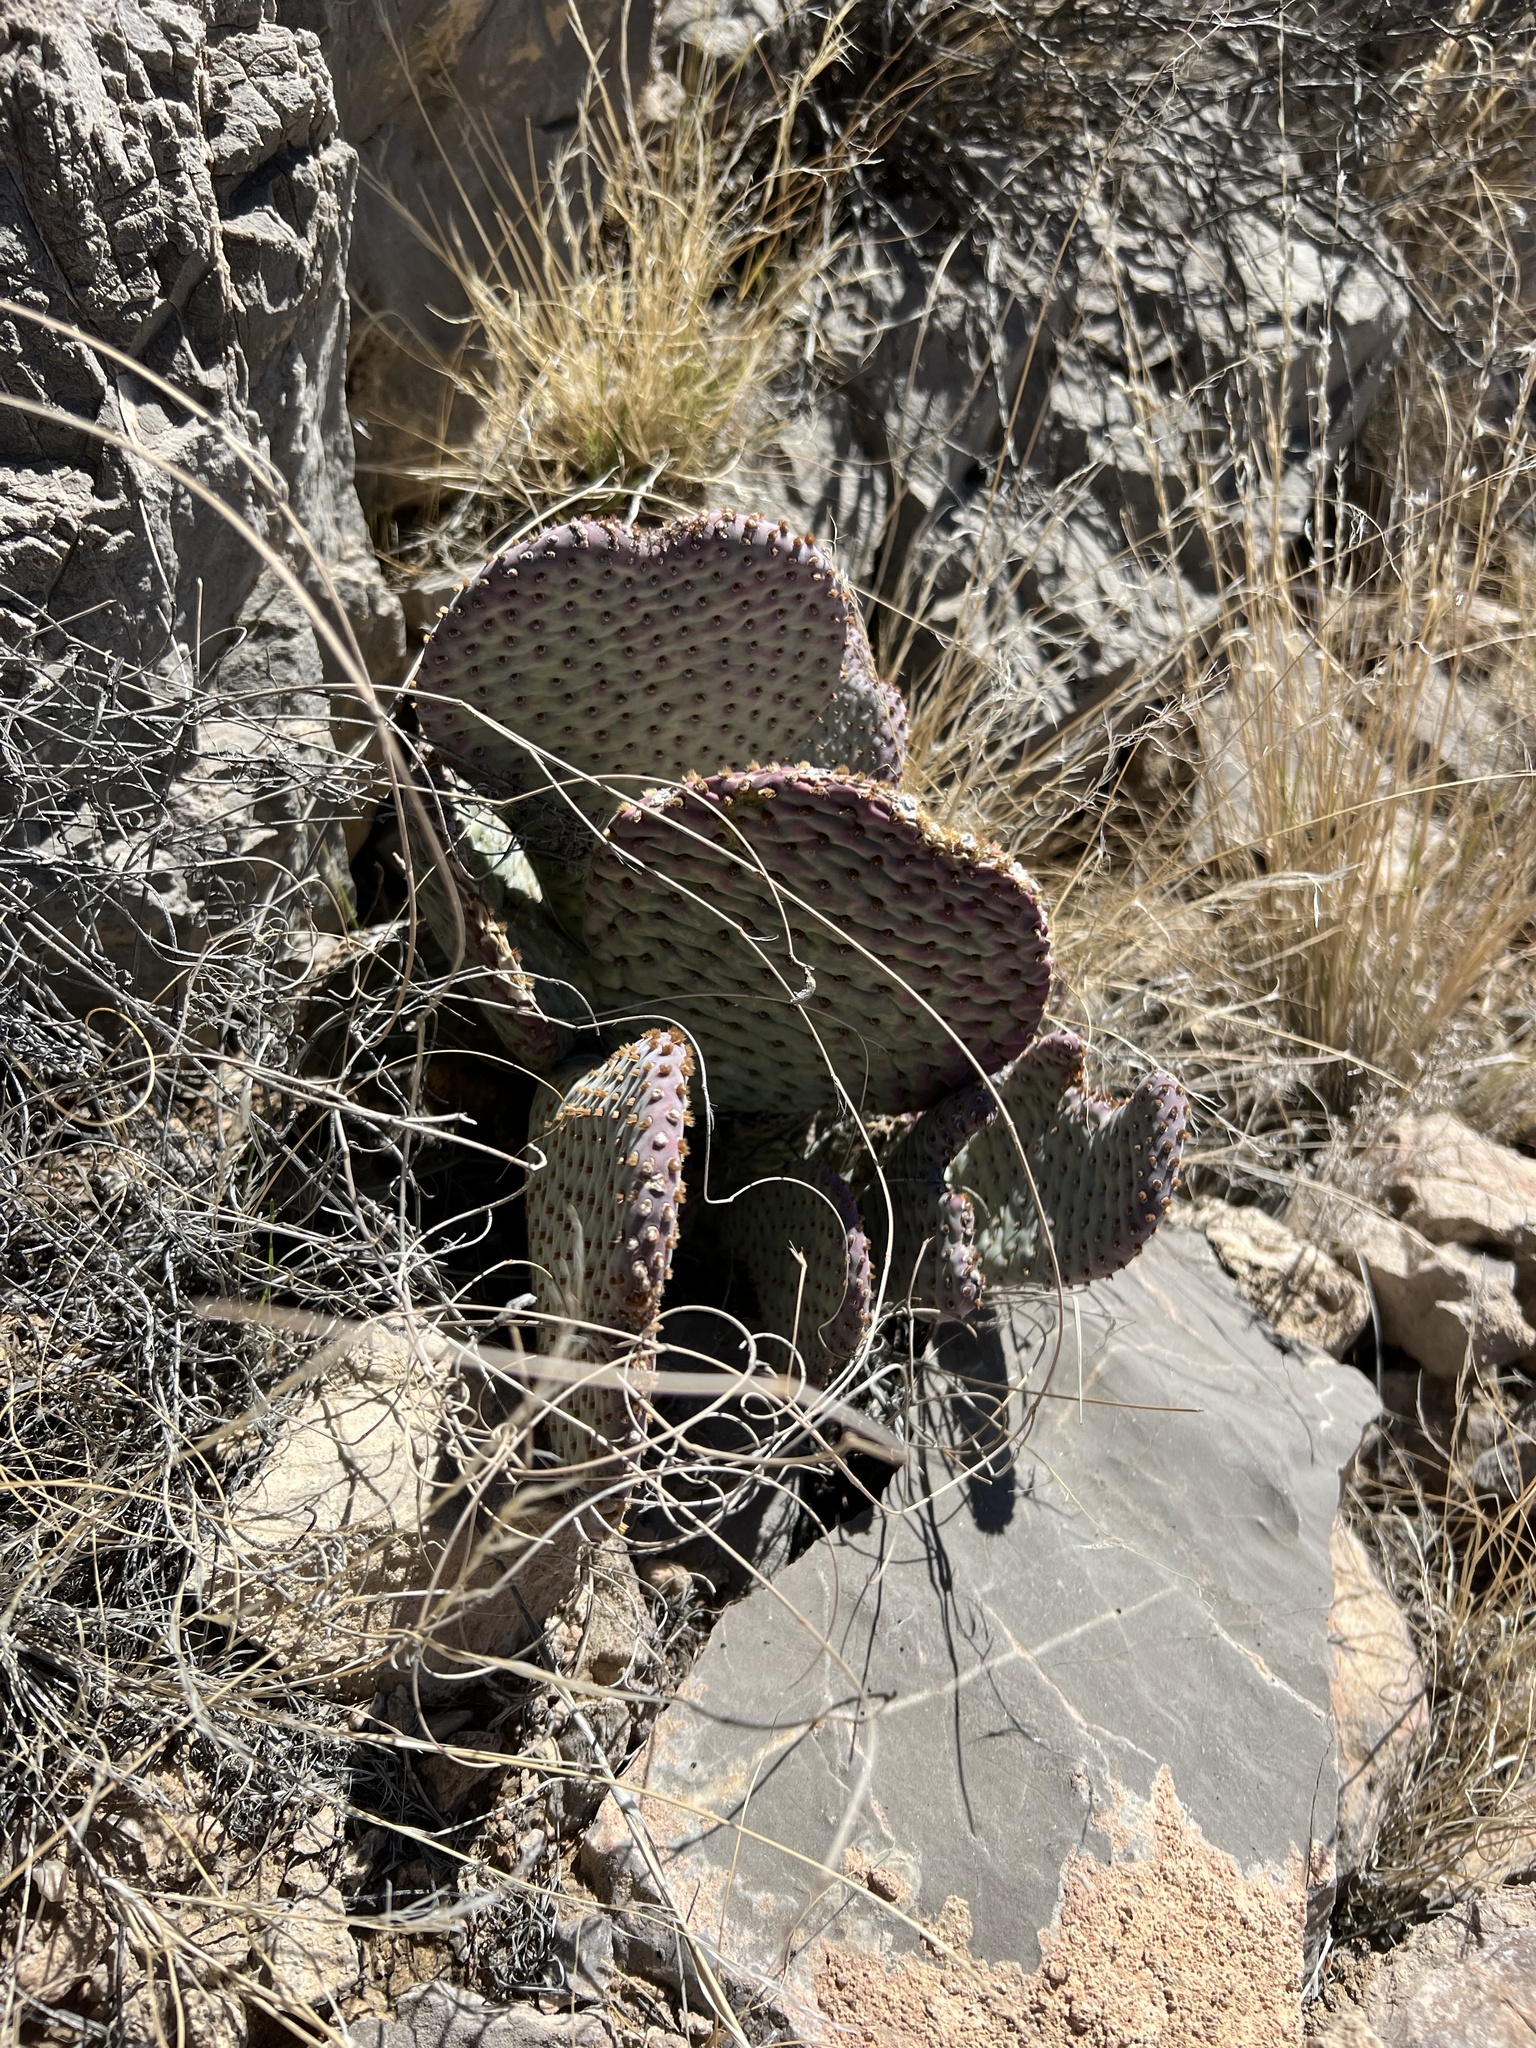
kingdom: Plantae
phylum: Tracheophyta
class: Magnoliopsida
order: Caryophyllales
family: Cactaceae
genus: Opuntia
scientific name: Opuntia basilaris
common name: Beavertail prickly-pear
